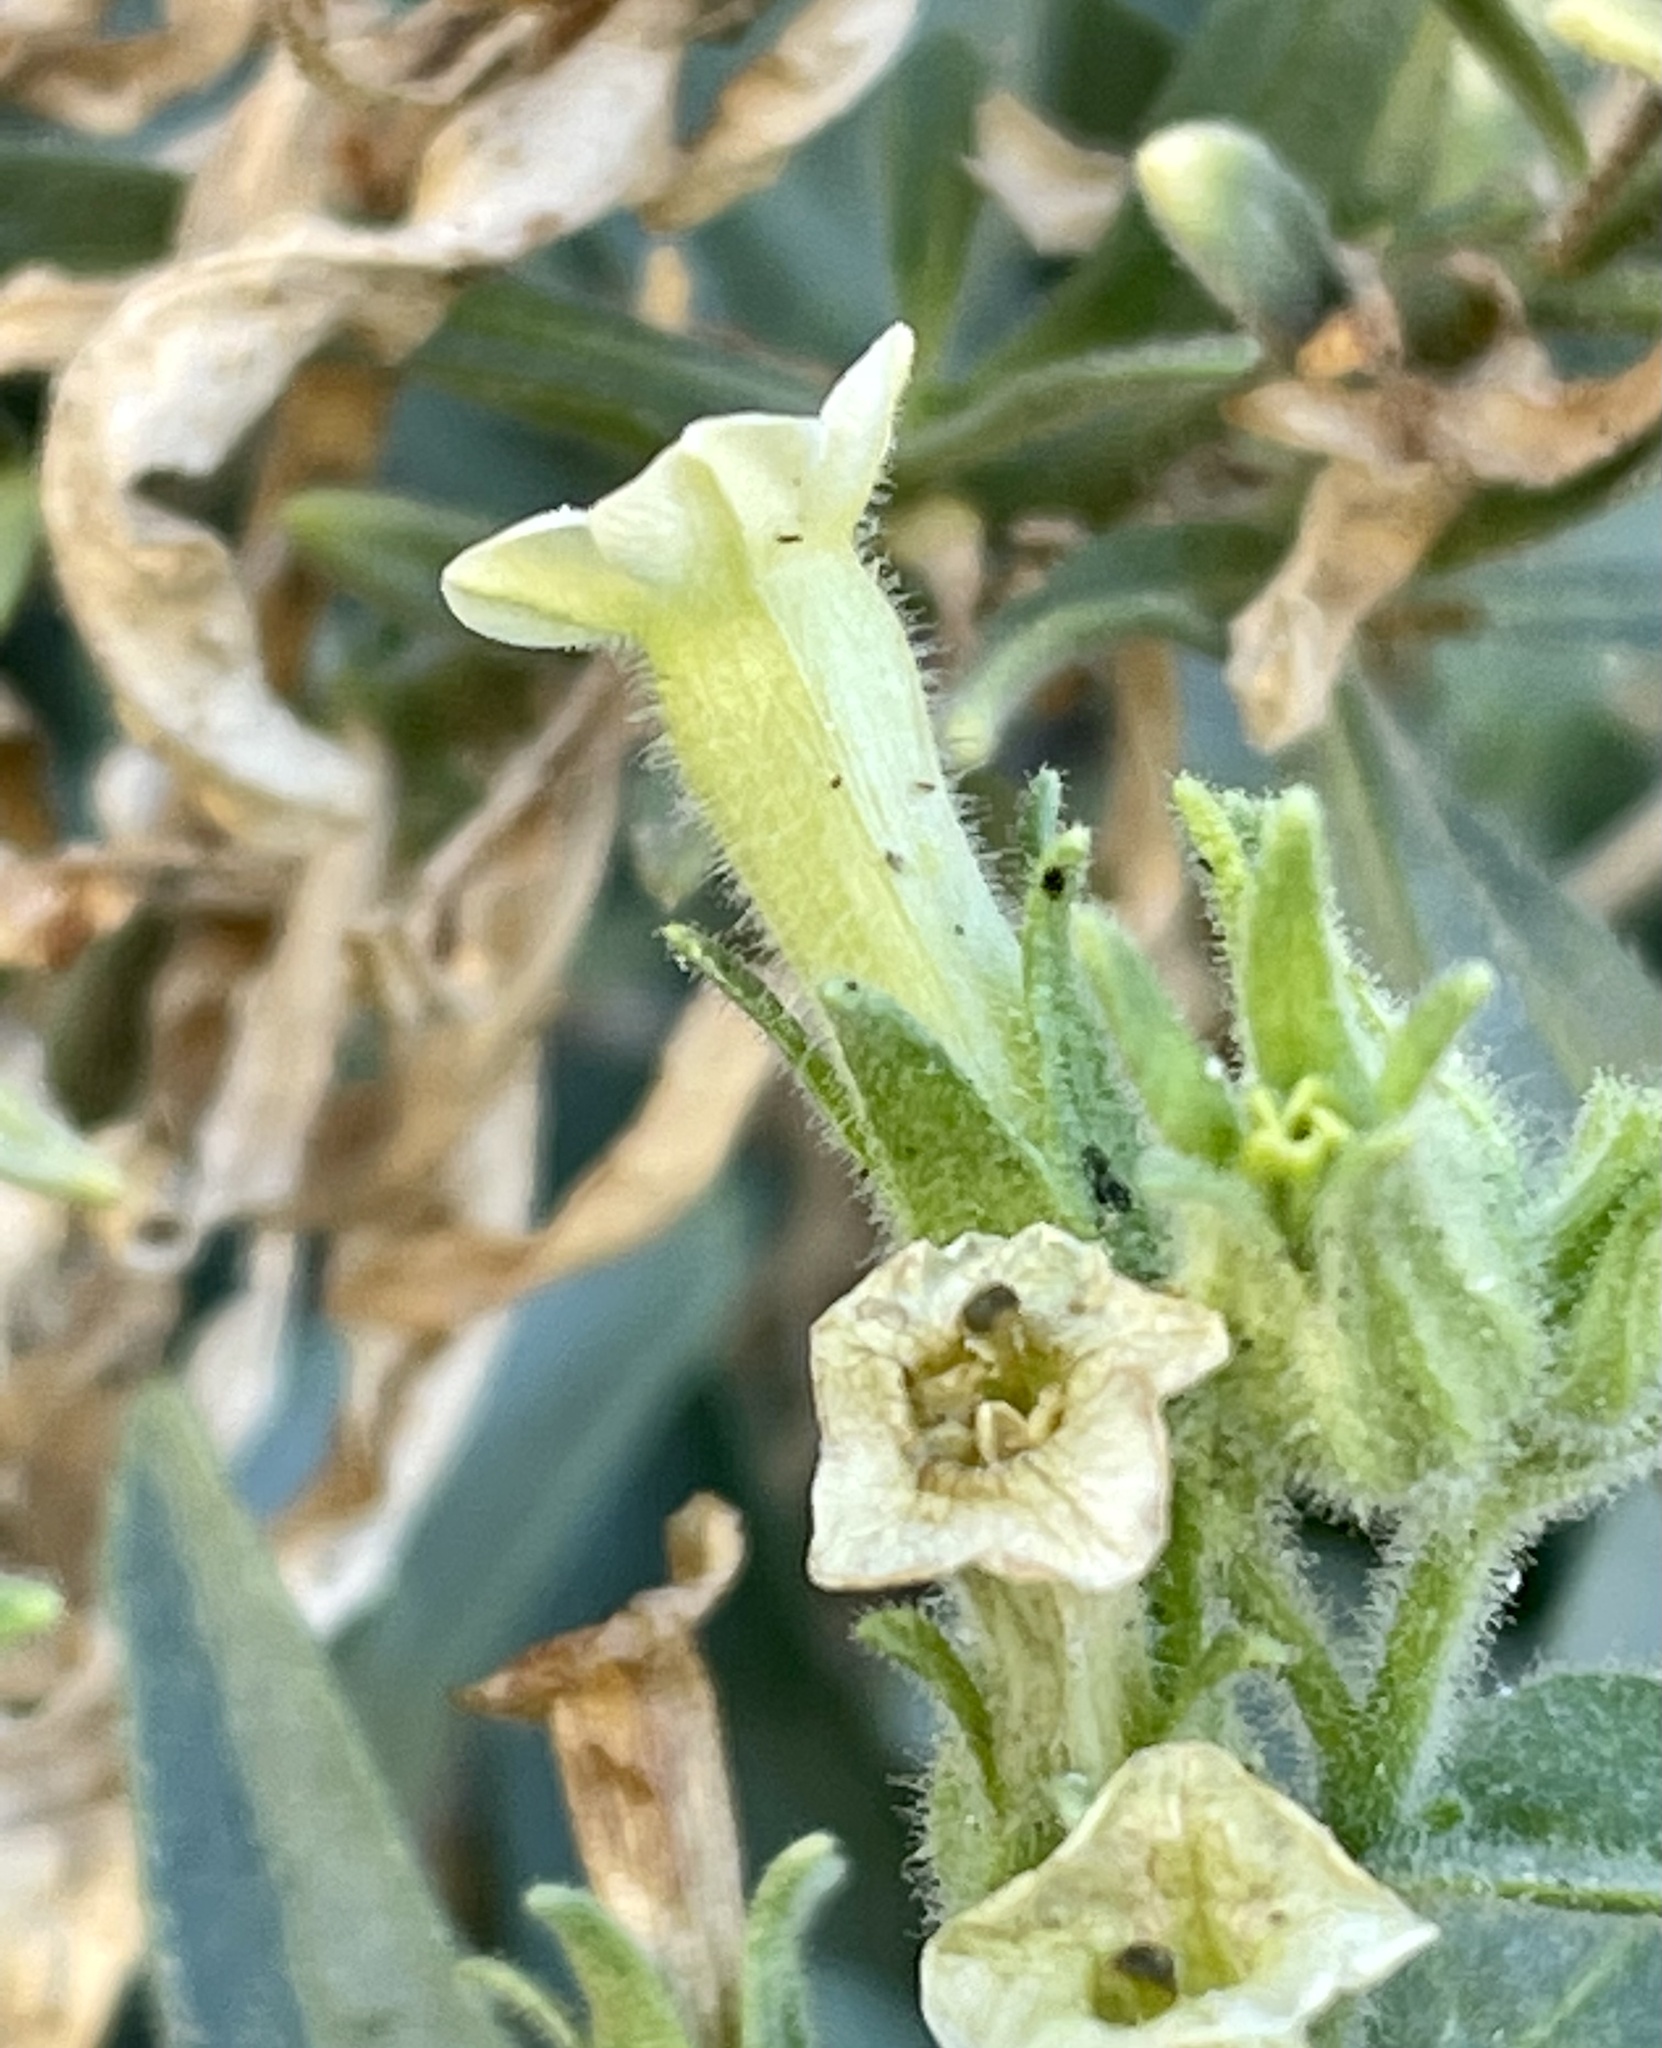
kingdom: Plantae
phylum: Tracheophyta
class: Magnoliopsida
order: Solanales
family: Solanaceae
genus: Nicotiana
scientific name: Nicotiana obtusifolia
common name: Desert tobacco
